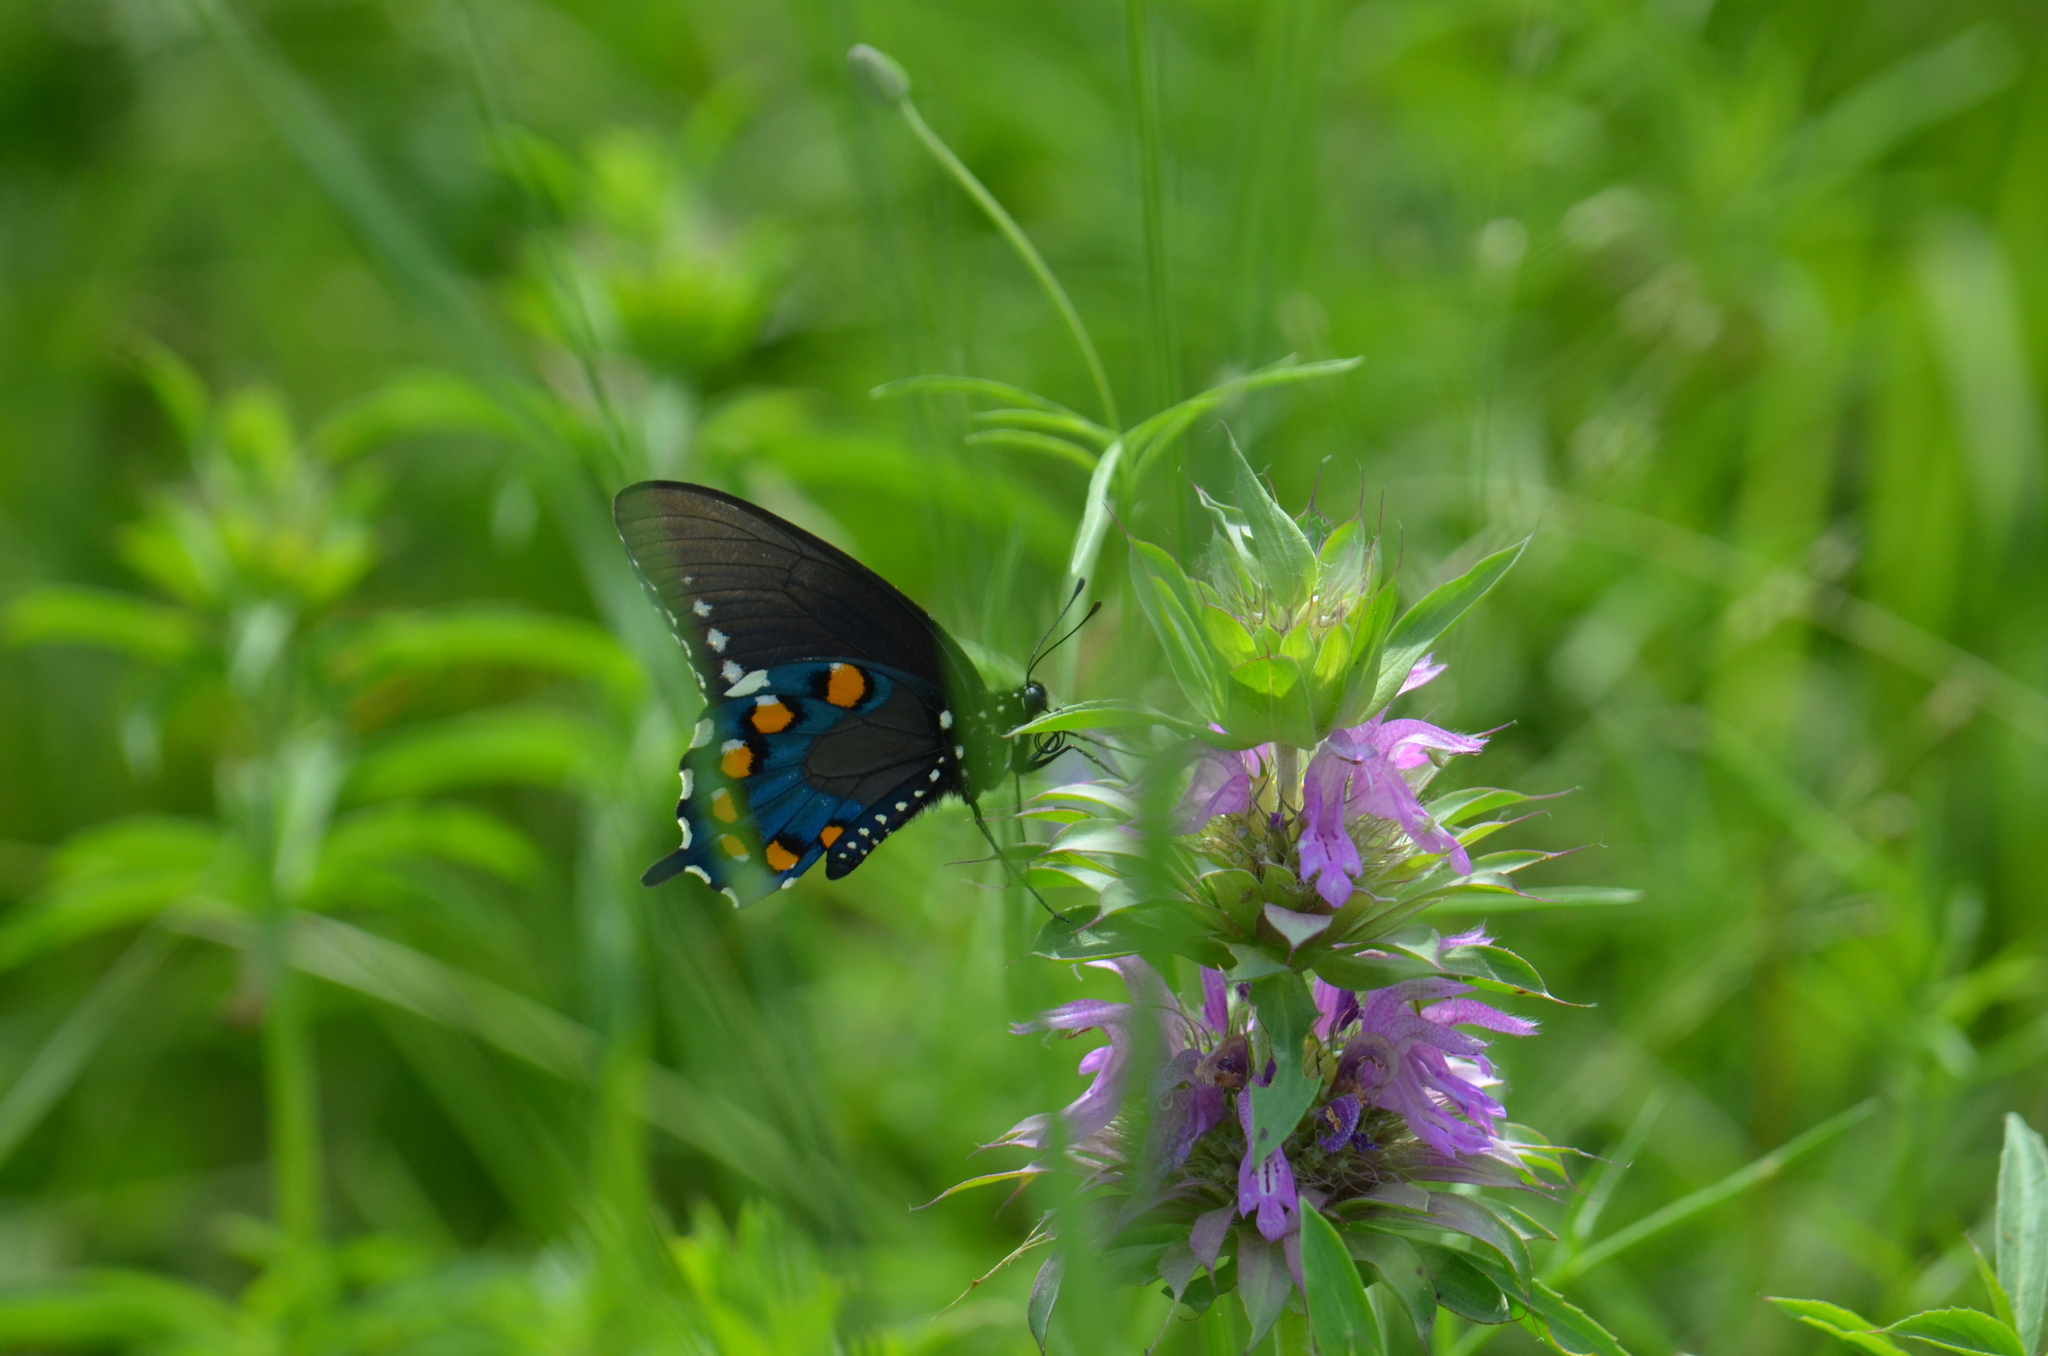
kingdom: Animalia
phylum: Arthropoda
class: Insecta
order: Lepidoptera
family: Papilionidae
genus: Battus
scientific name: Battus philenor
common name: Pipevine swallowtail
